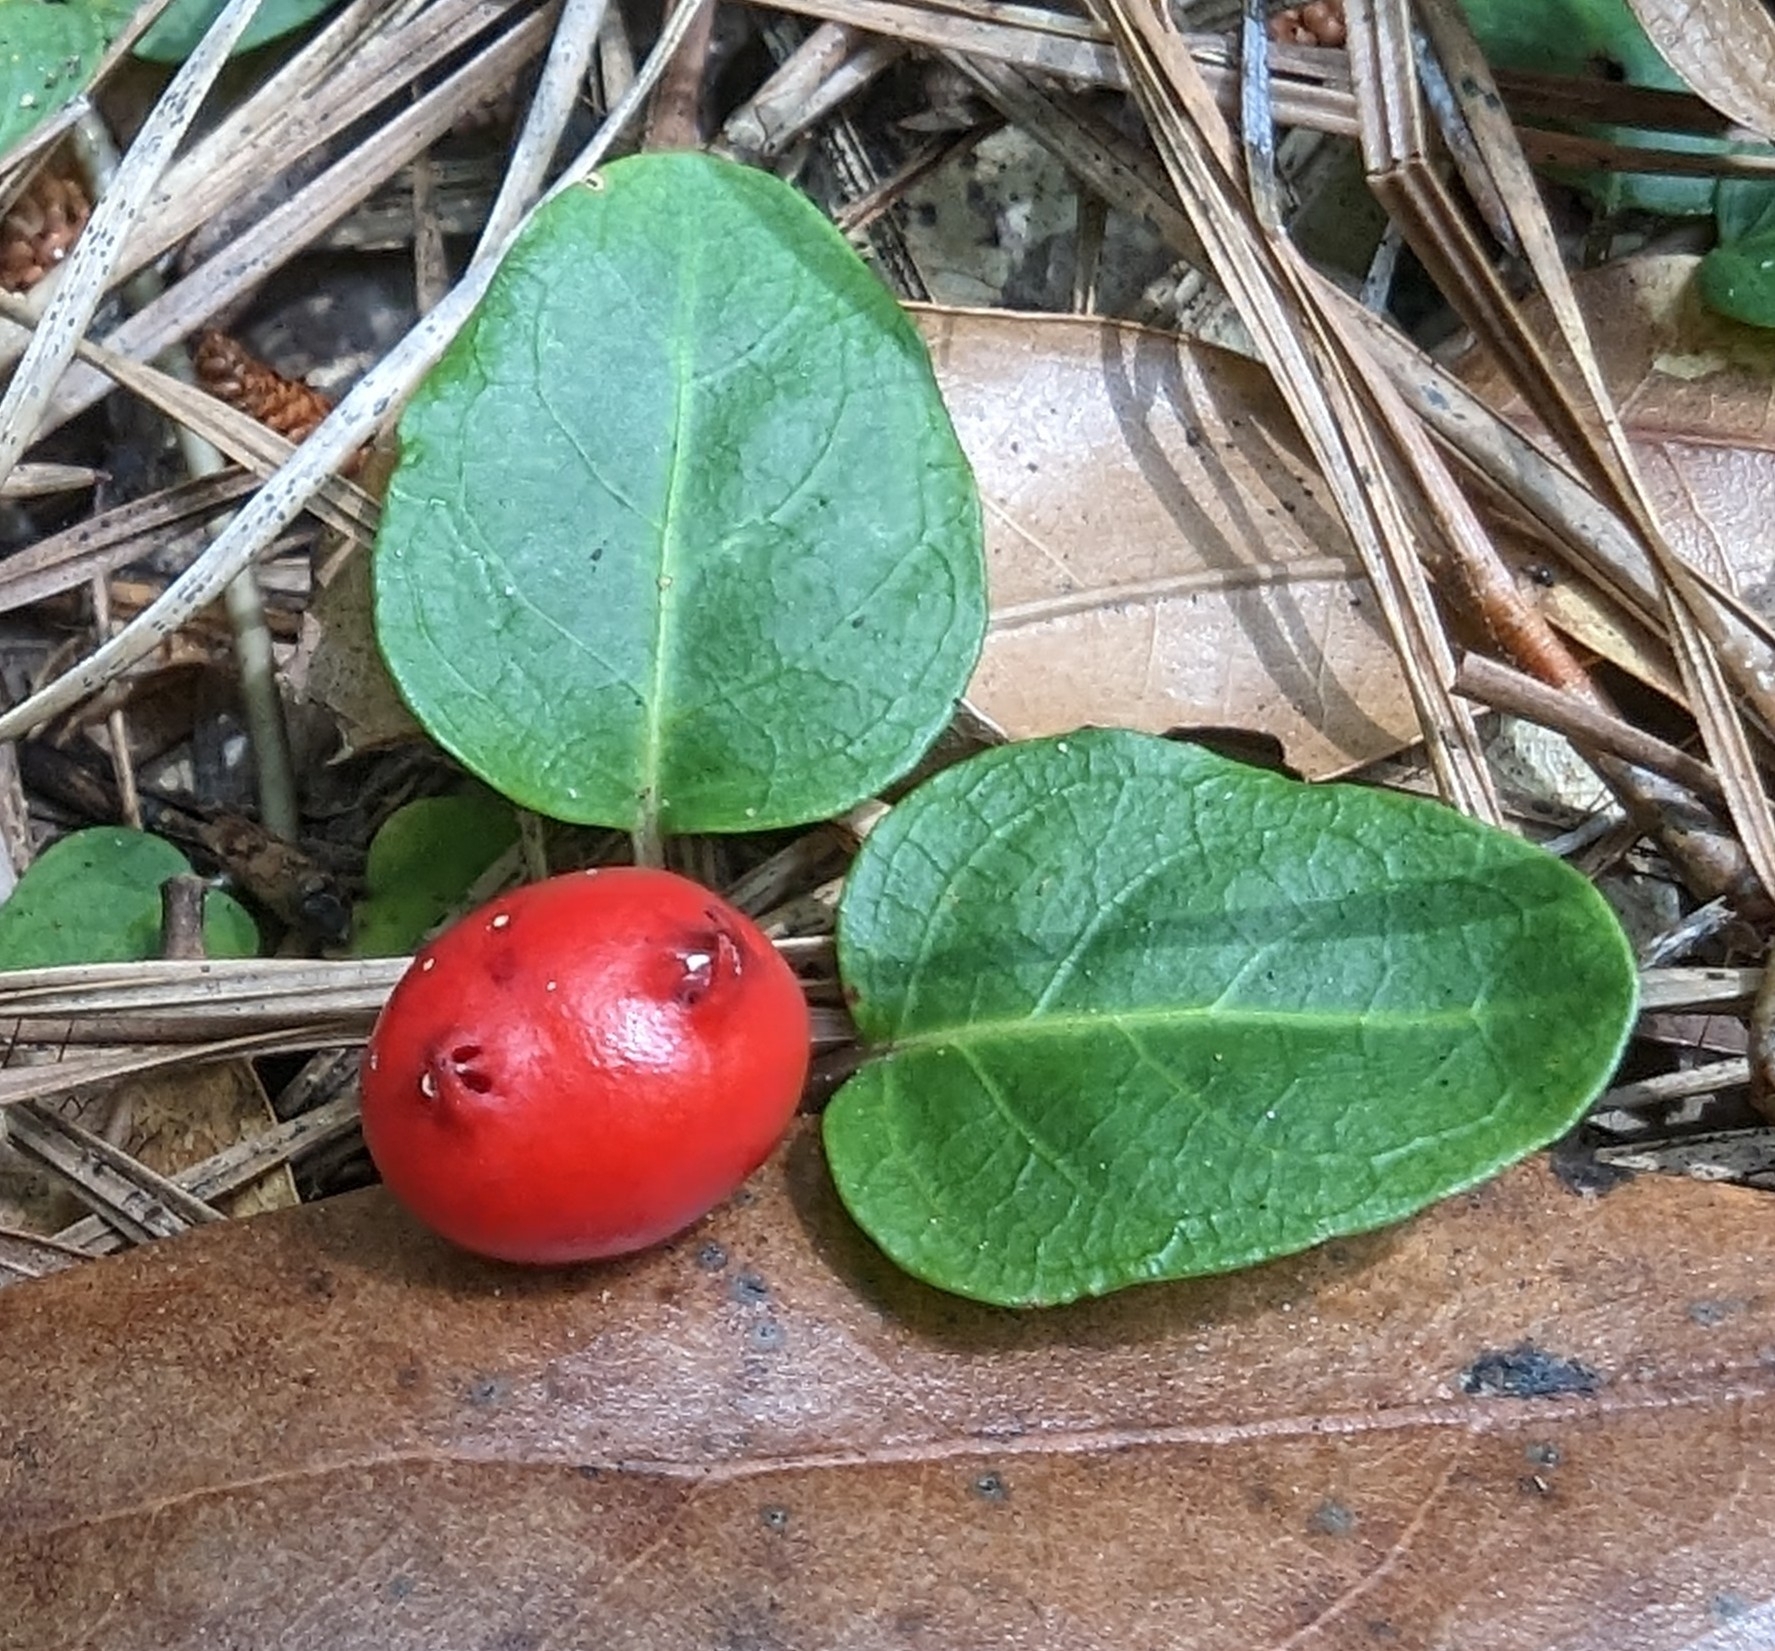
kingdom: Plantae
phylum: Tracheophyta
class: Magnoliopsida
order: Gentianales
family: Rubiaceae
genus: Mitchella
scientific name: Mitchella repens
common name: Partridge-berry
